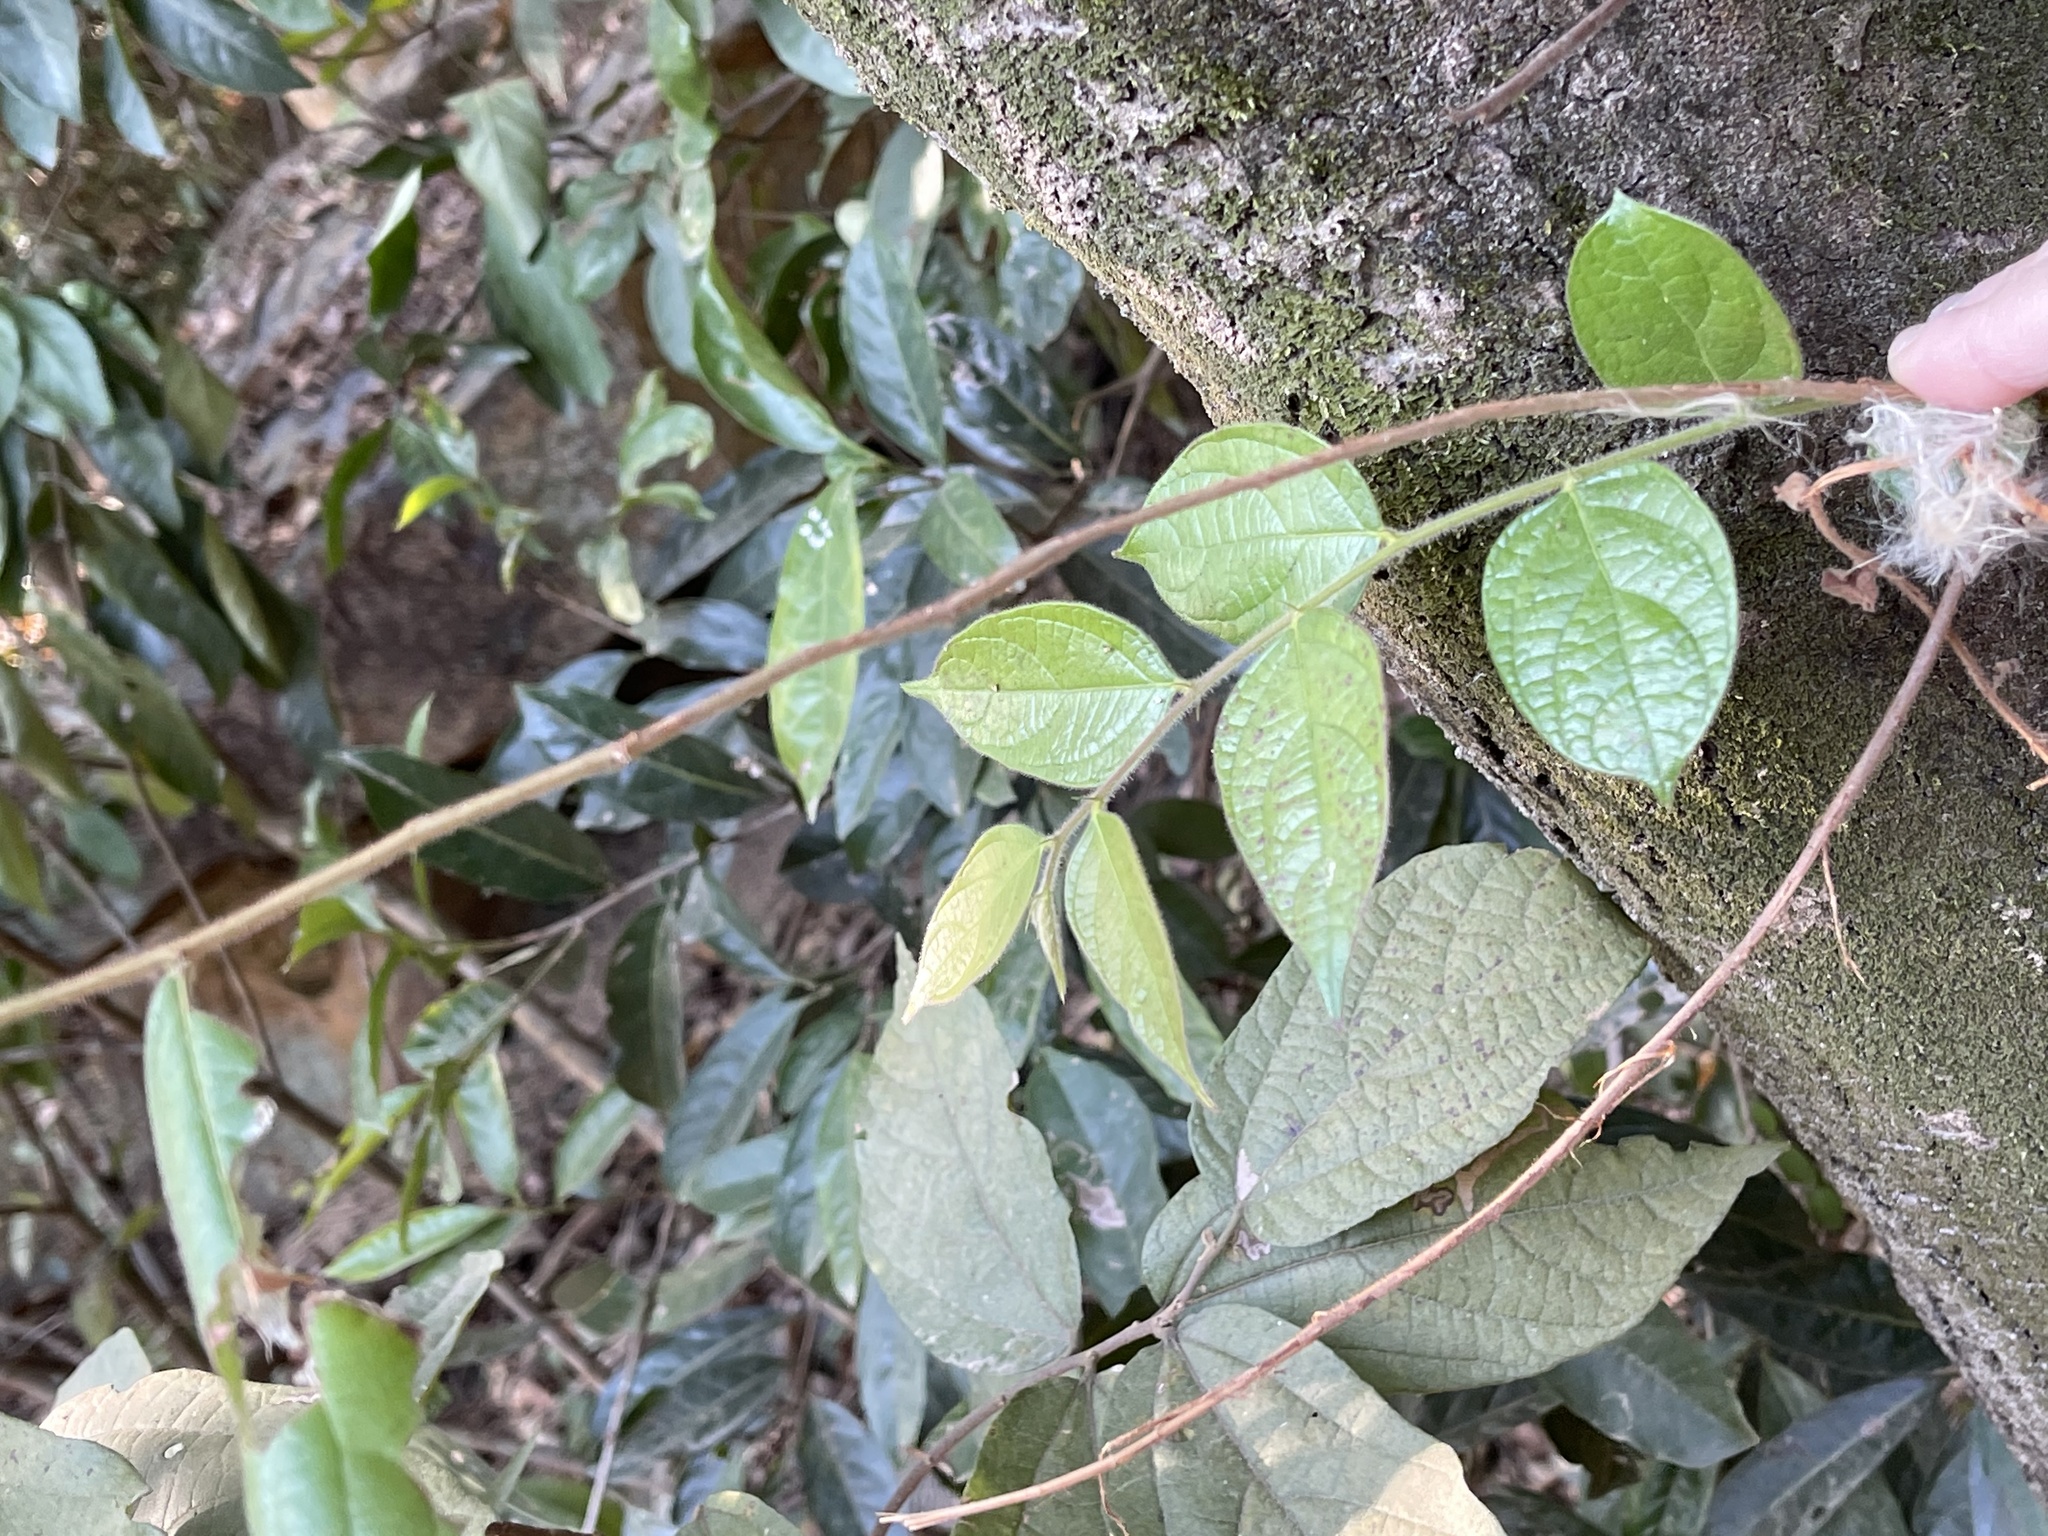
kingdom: Plantae
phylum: Tracheophyta
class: Magnoliopsida
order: Malpighiales
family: Phyllanthaceae
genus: Glochidion
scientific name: Glochidion eriocarpum
